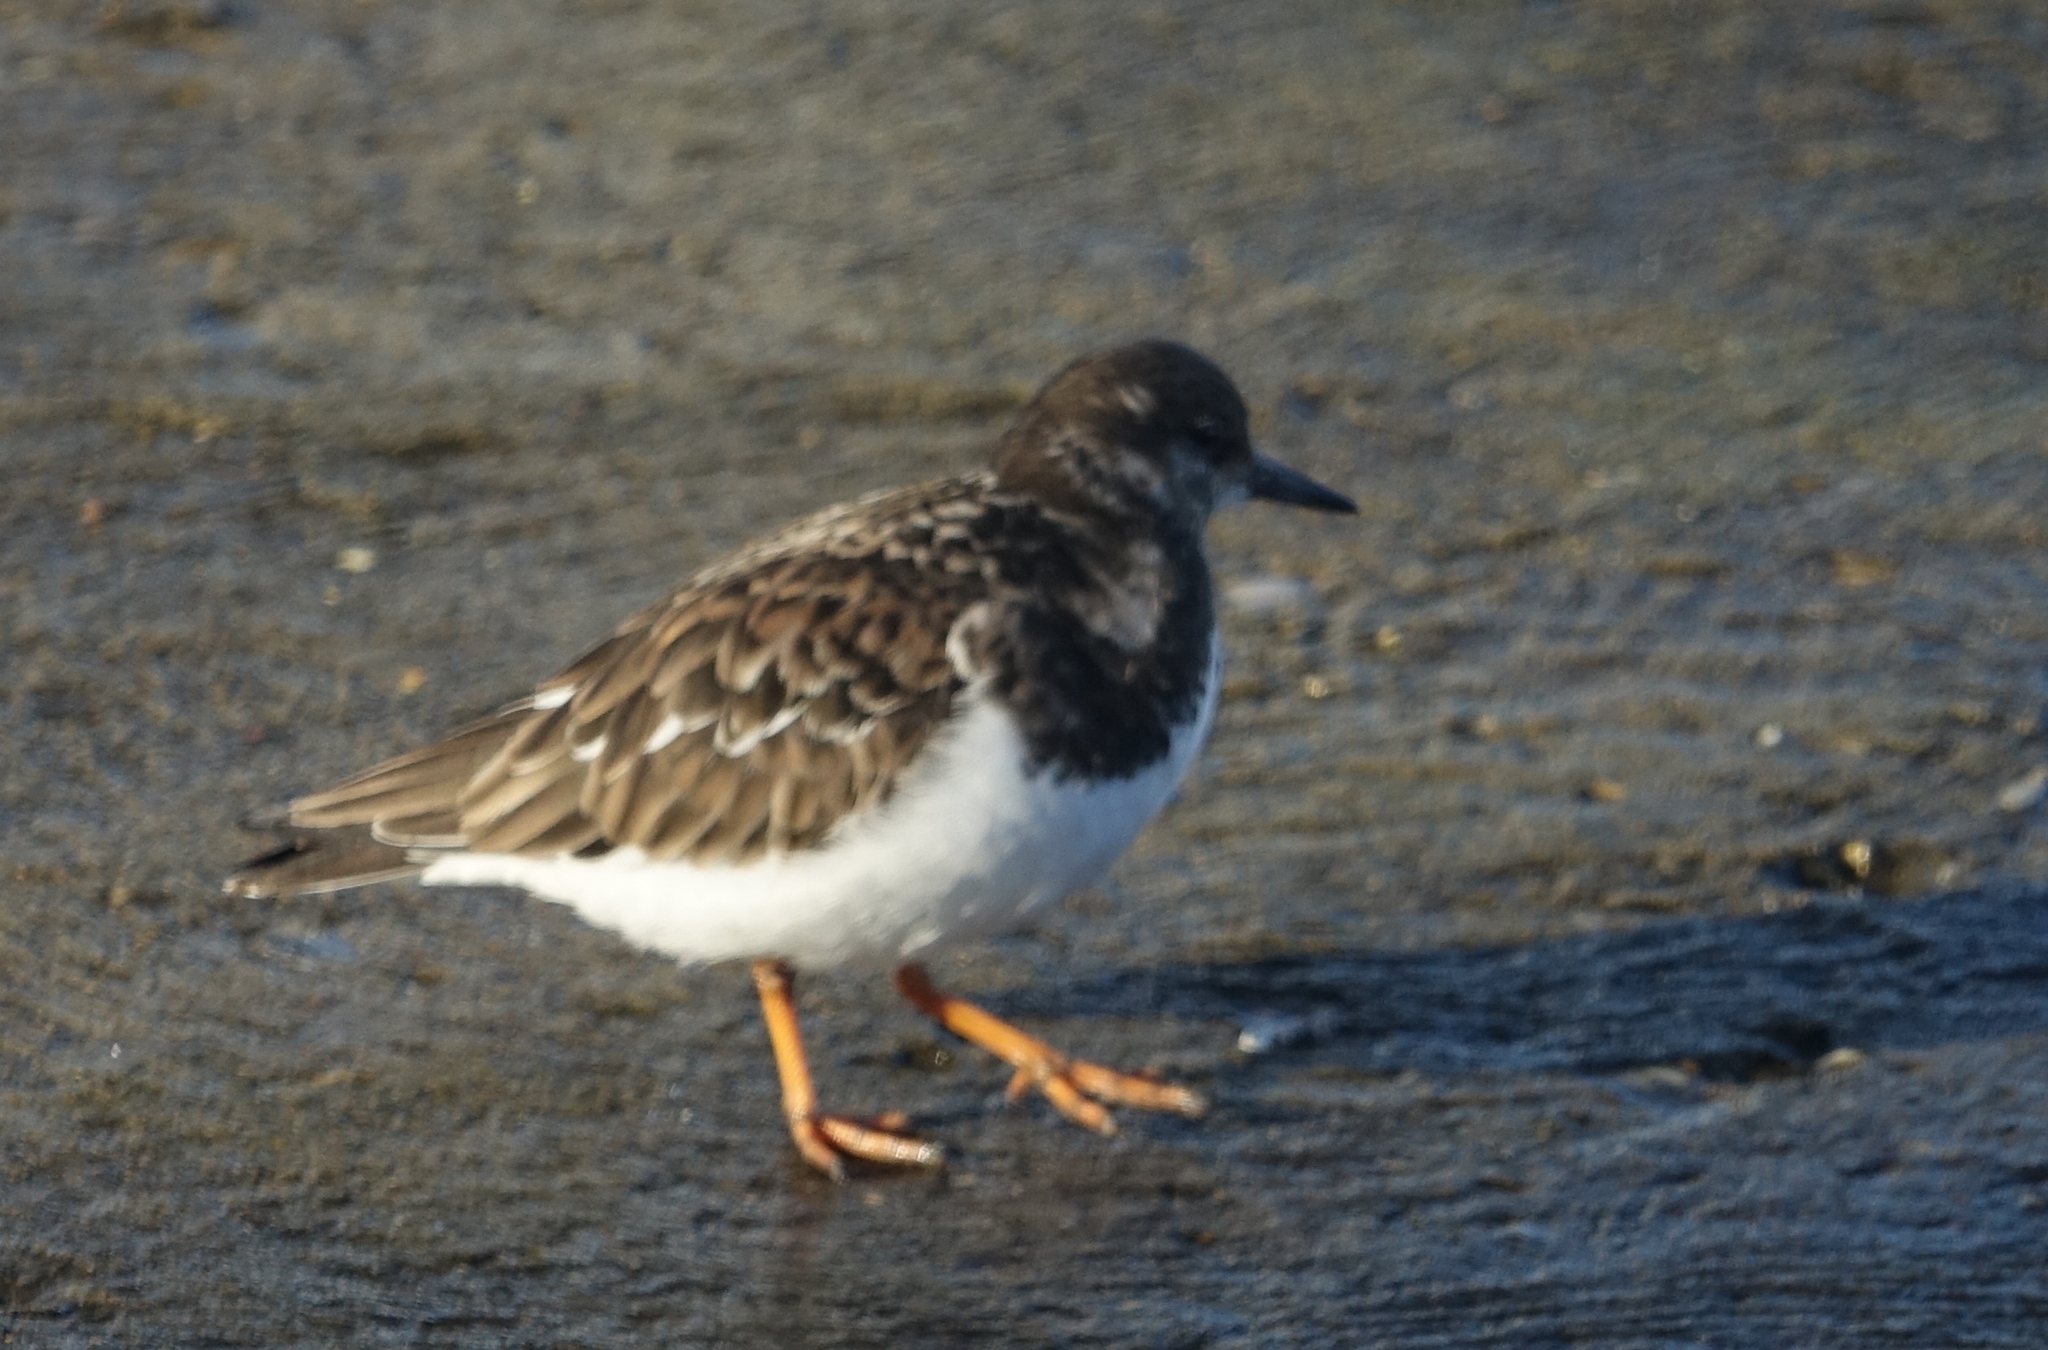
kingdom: Animalia
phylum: Chordata
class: Aves
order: Charadriiformes
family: Scolopacidae
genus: Arenaria
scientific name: Arenaria interpres
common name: Ruddy turnstone
